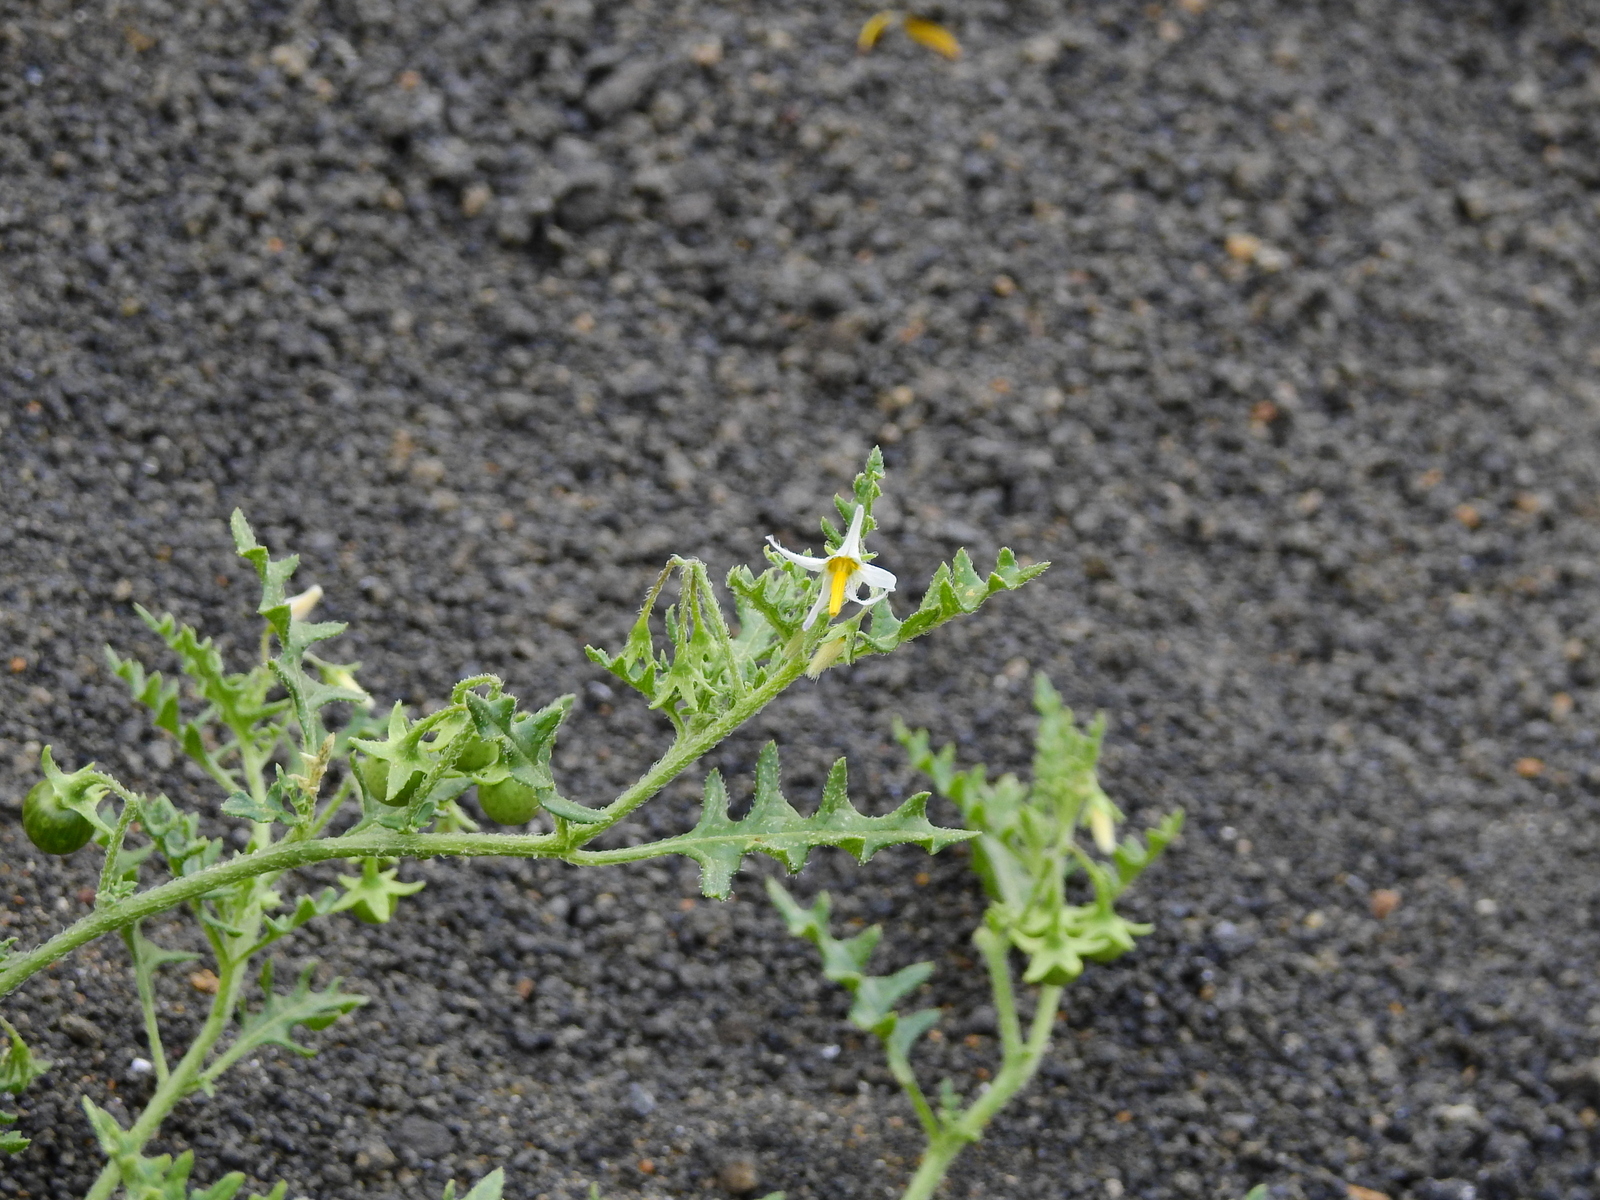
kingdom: Plantae
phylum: Tracheophyta
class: Magnoliopsida
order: Solanales
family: Solanaceae
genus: Solanum
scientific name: Solanum triflorum
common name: Small nightshade
